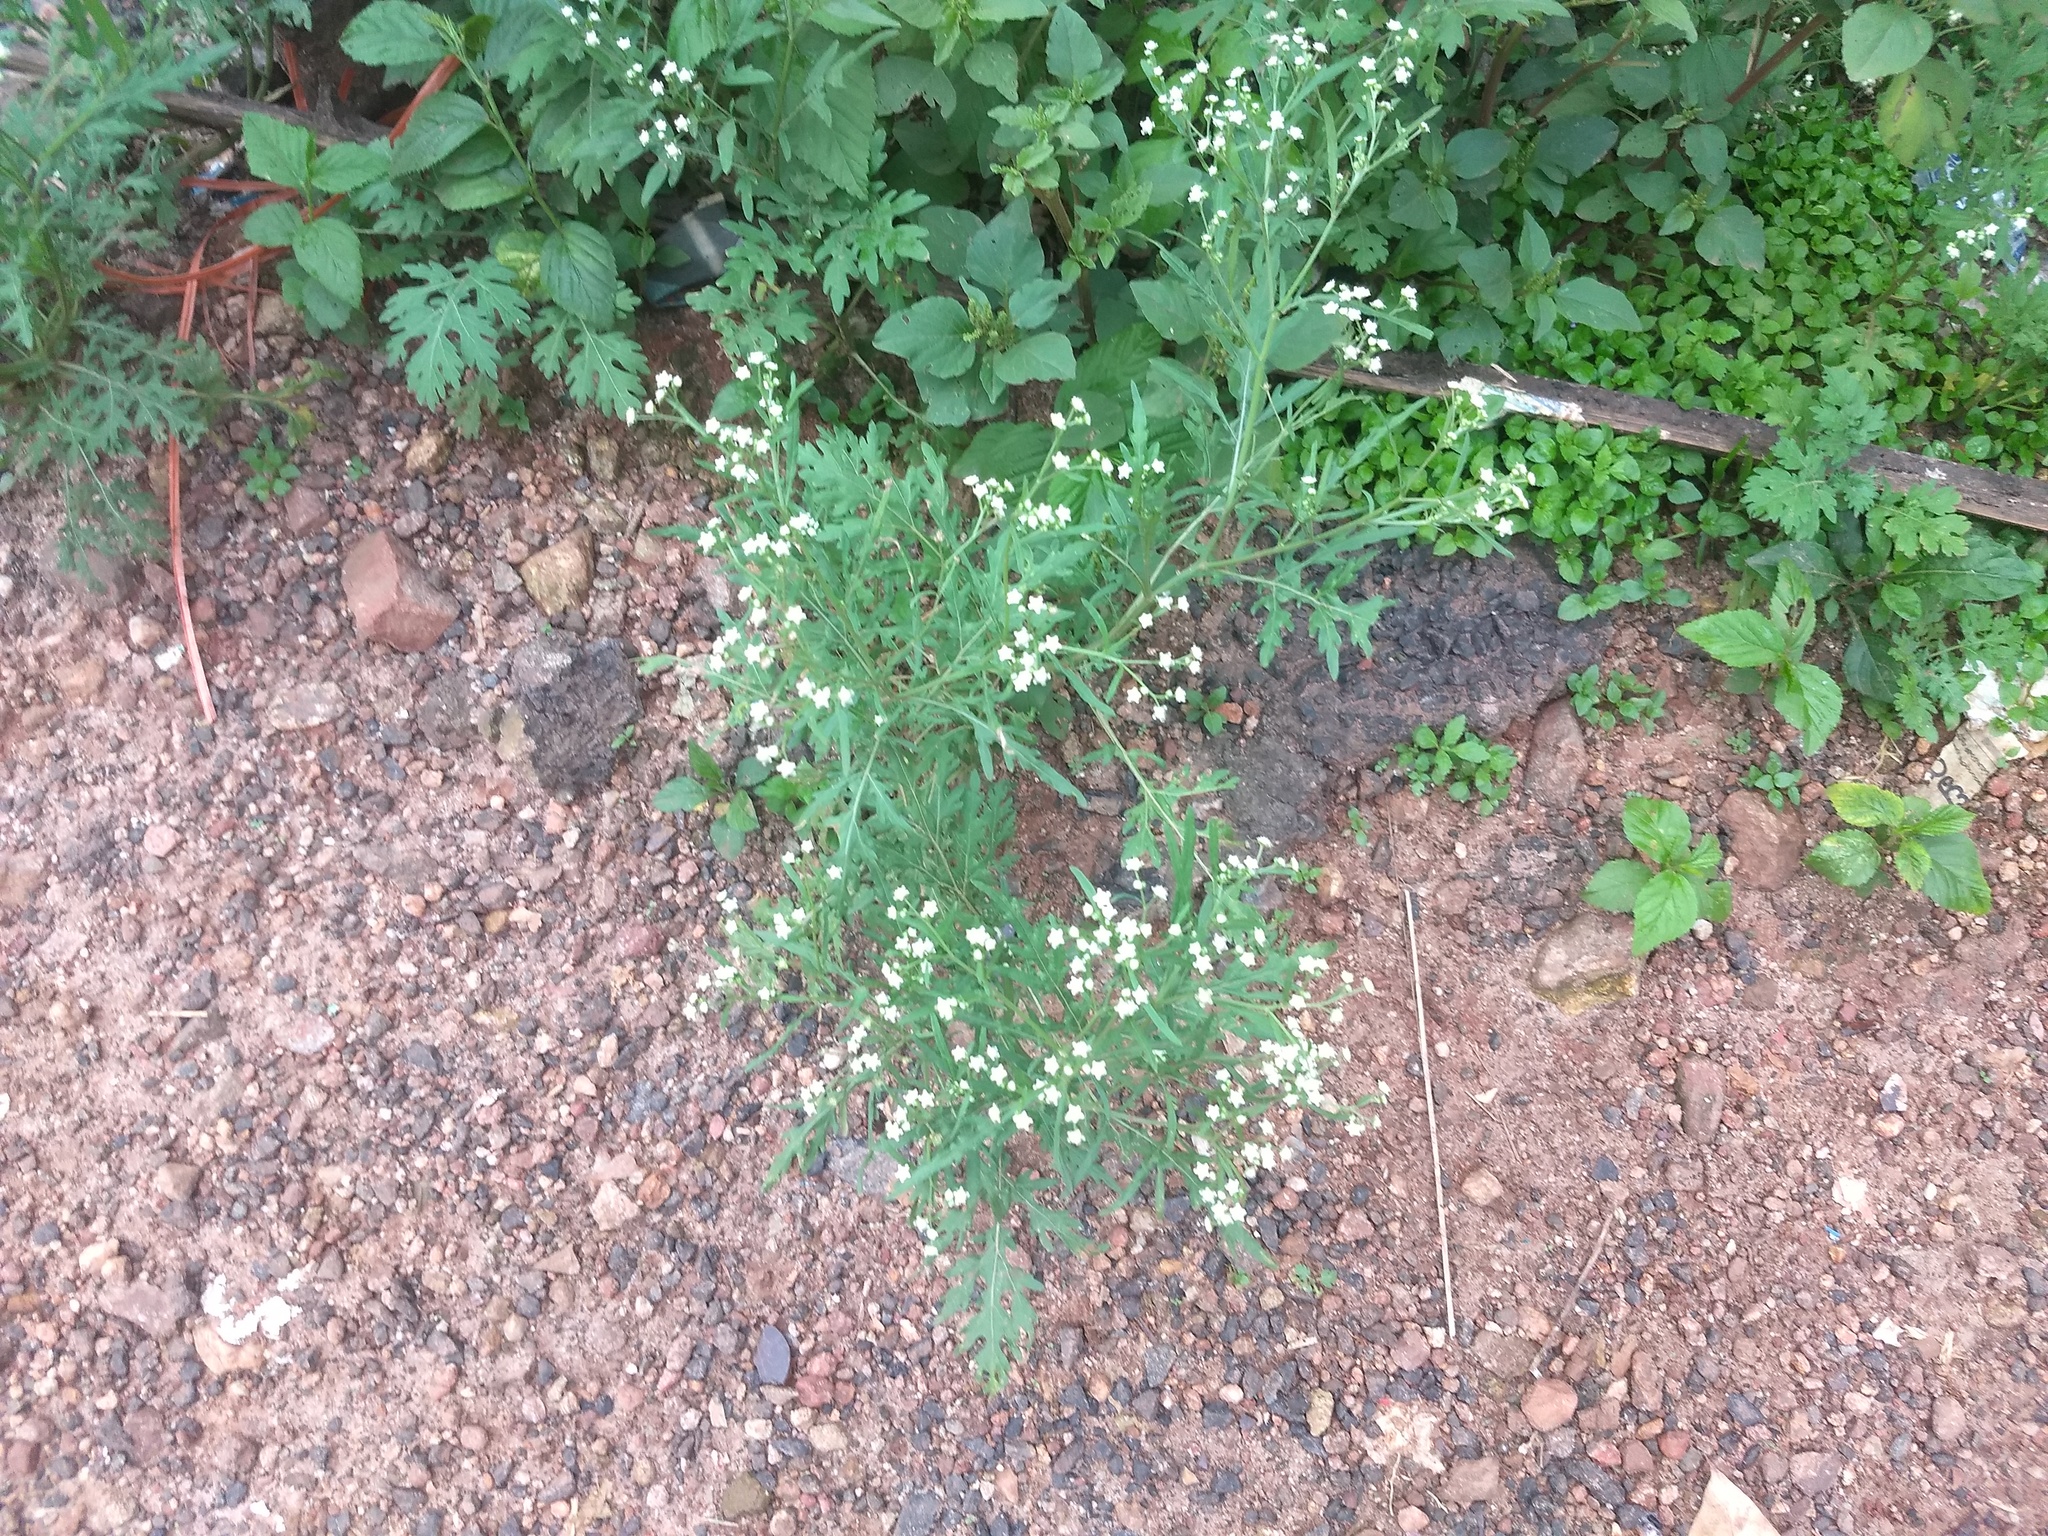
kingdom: Plantae
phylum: Tracheophyta
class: Magnoliopsida
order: Asterales
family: Asteraceae
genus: Parthenium
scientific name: Parthenium hysterophorus
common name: Santa maria feverfew
